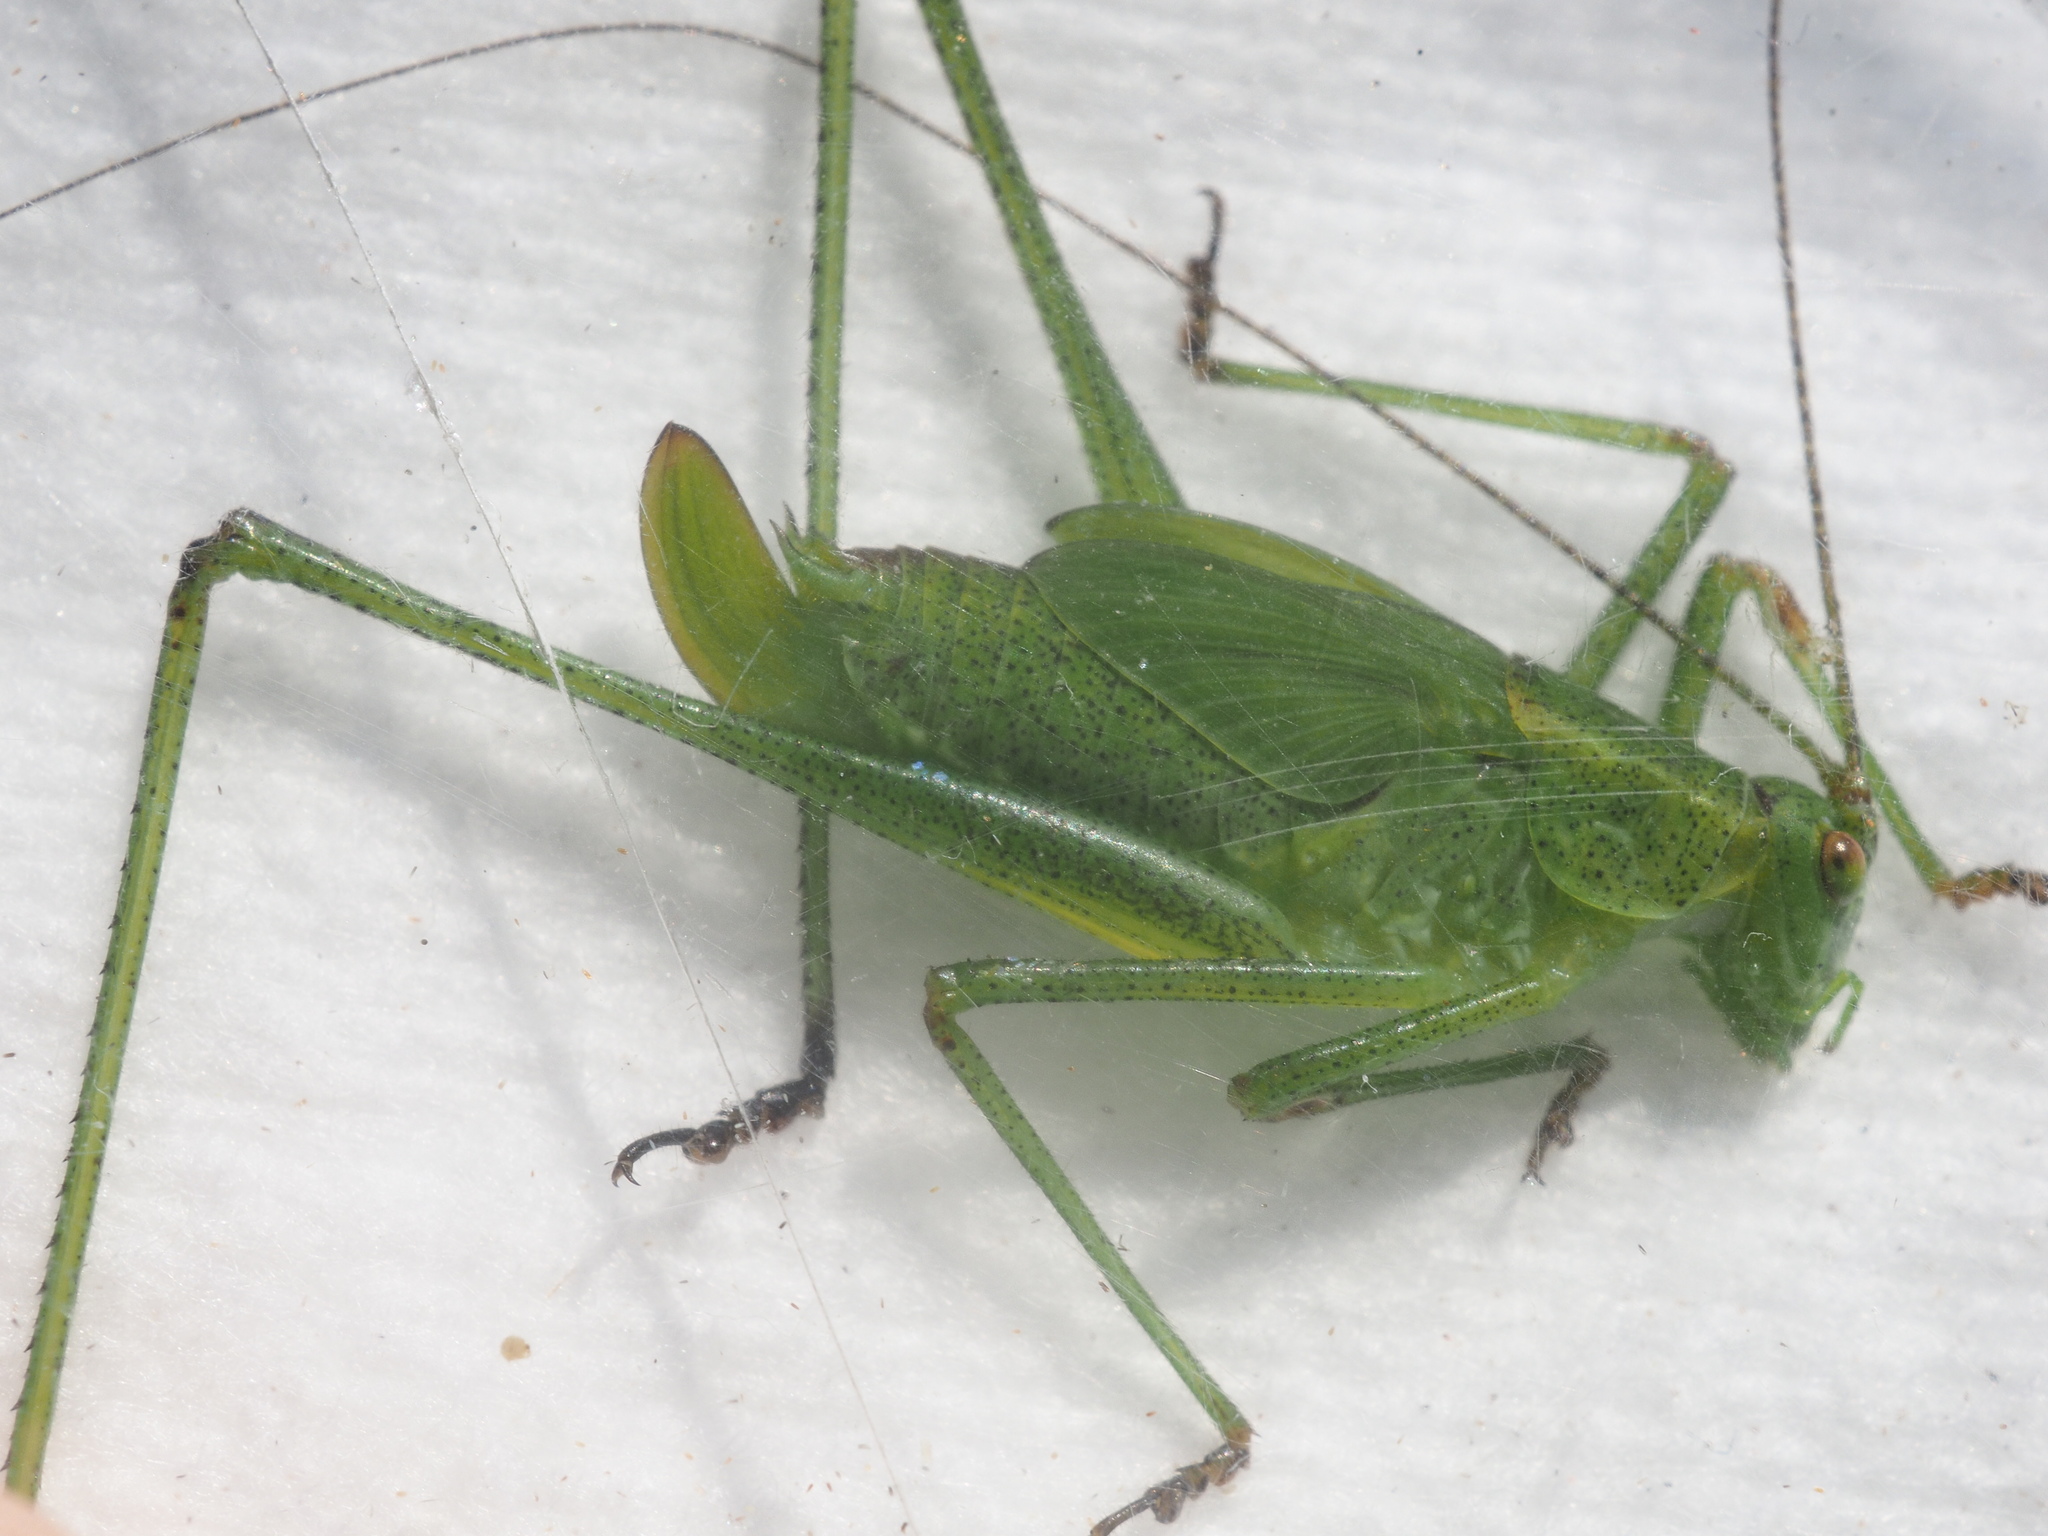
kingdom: Animalia
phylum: Arthropoda
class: Insecta
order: Orthoptera
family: Tettigoniidae
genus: Phaneroptera
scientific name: Phaneroptera falcata
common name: Sickle-bearing bush-cricket
